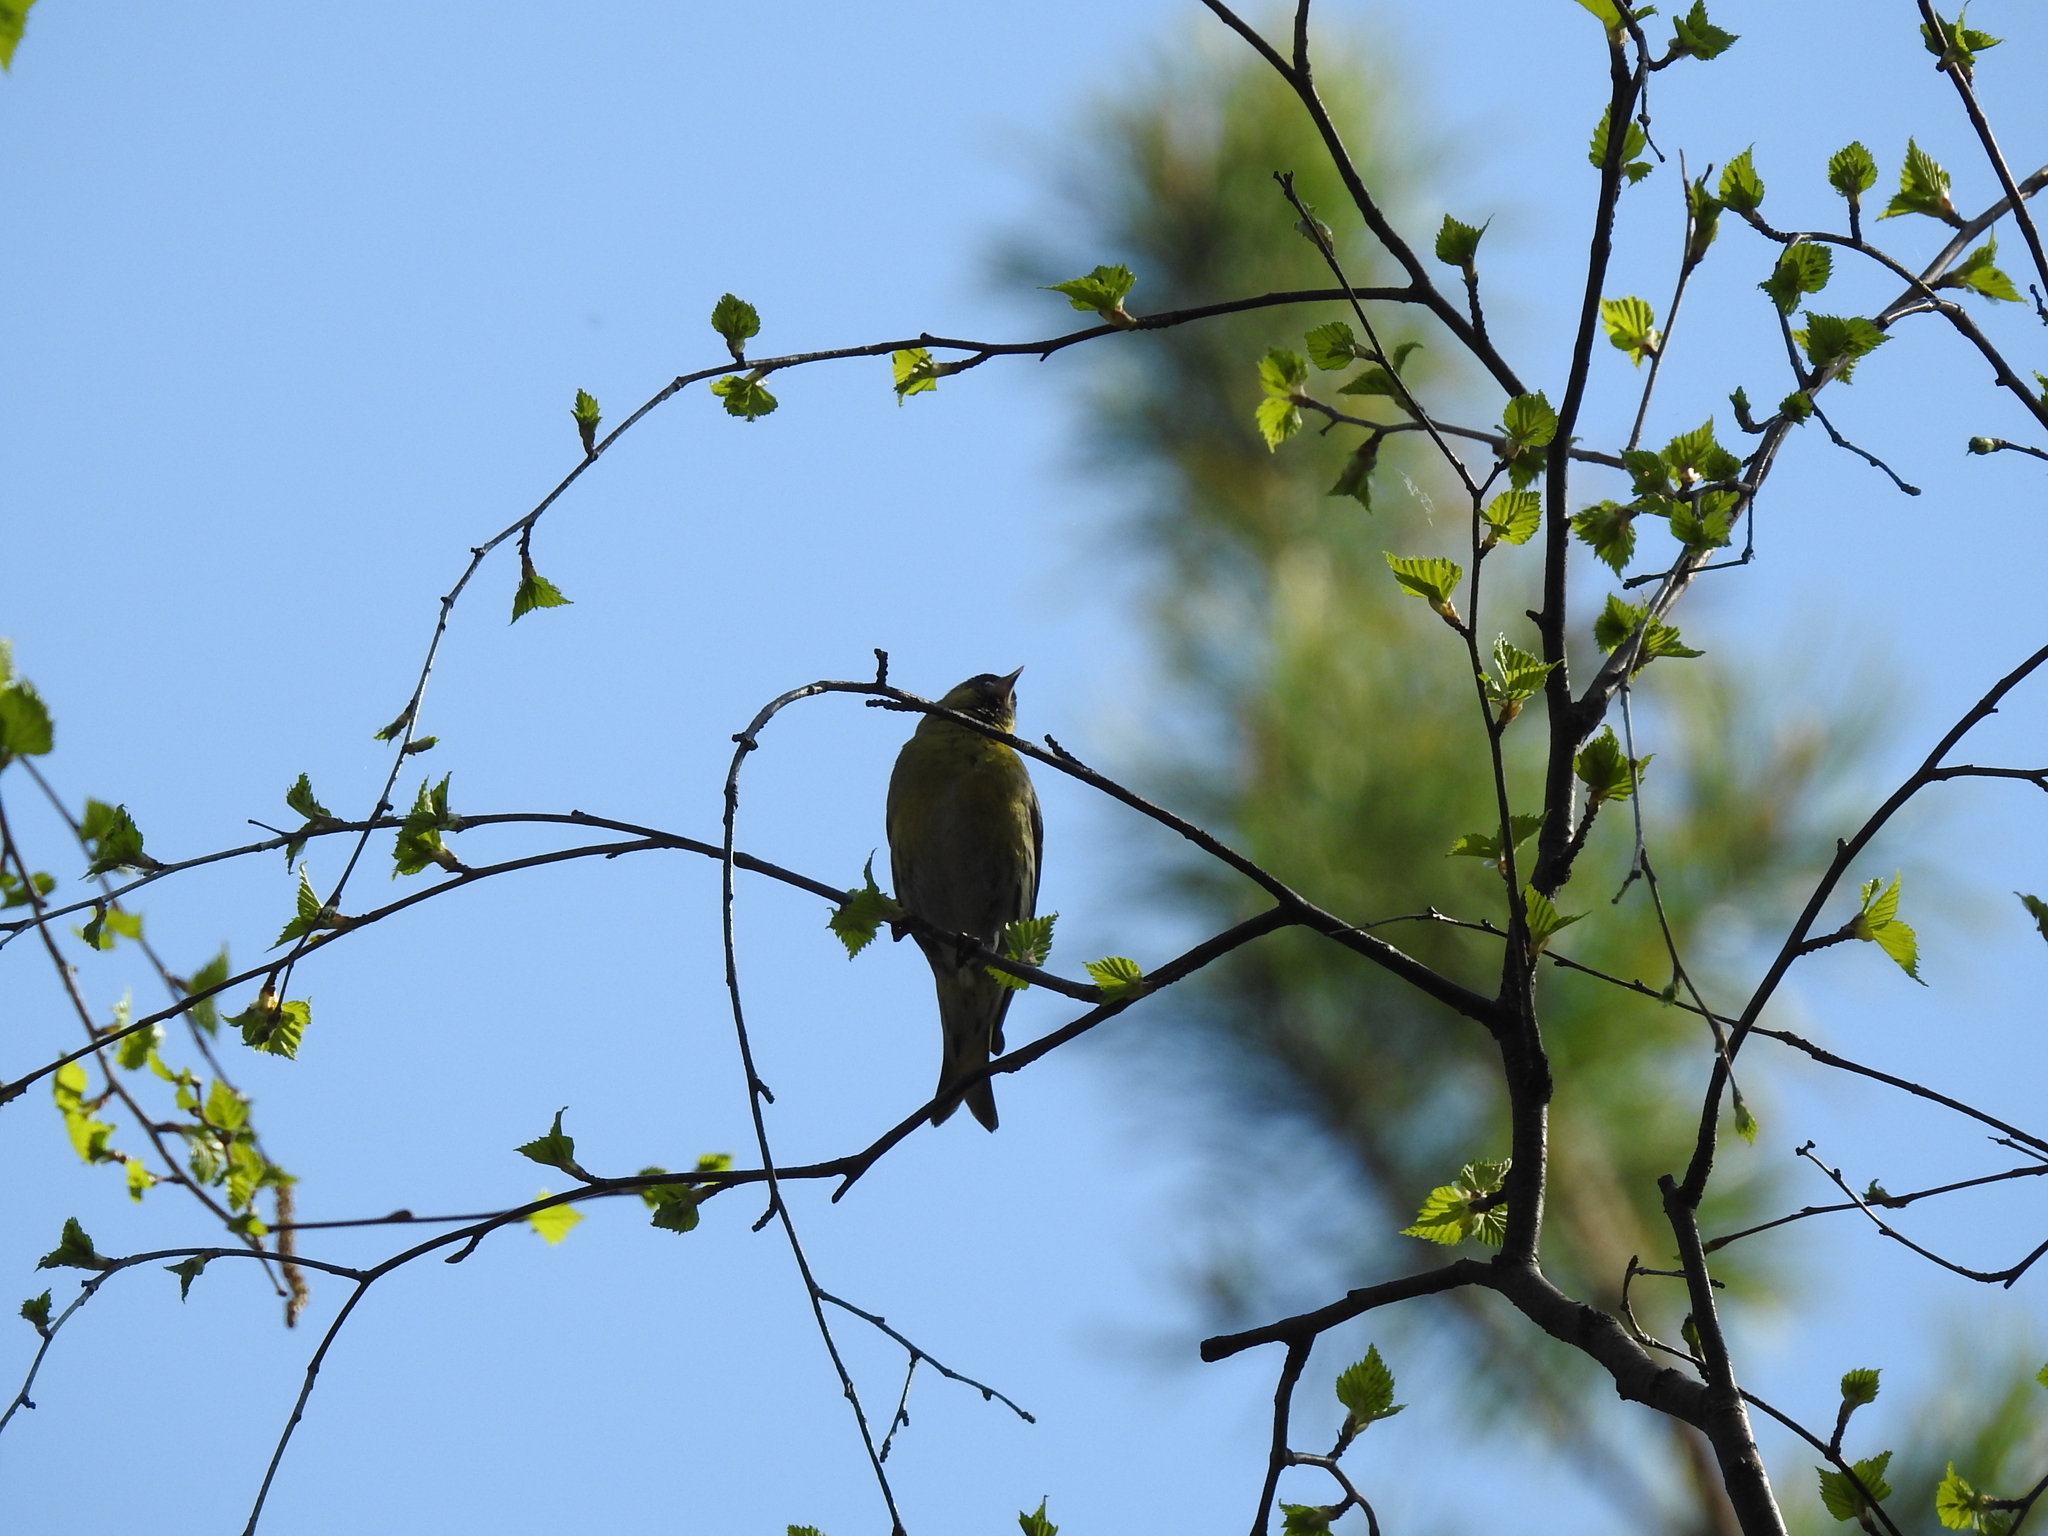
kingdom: Animalia
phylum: Chordata
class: Aves
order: Passeriformes
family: Fringillidae
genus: Spinus
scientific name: Spinus spinus
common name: Eurasian siskin
